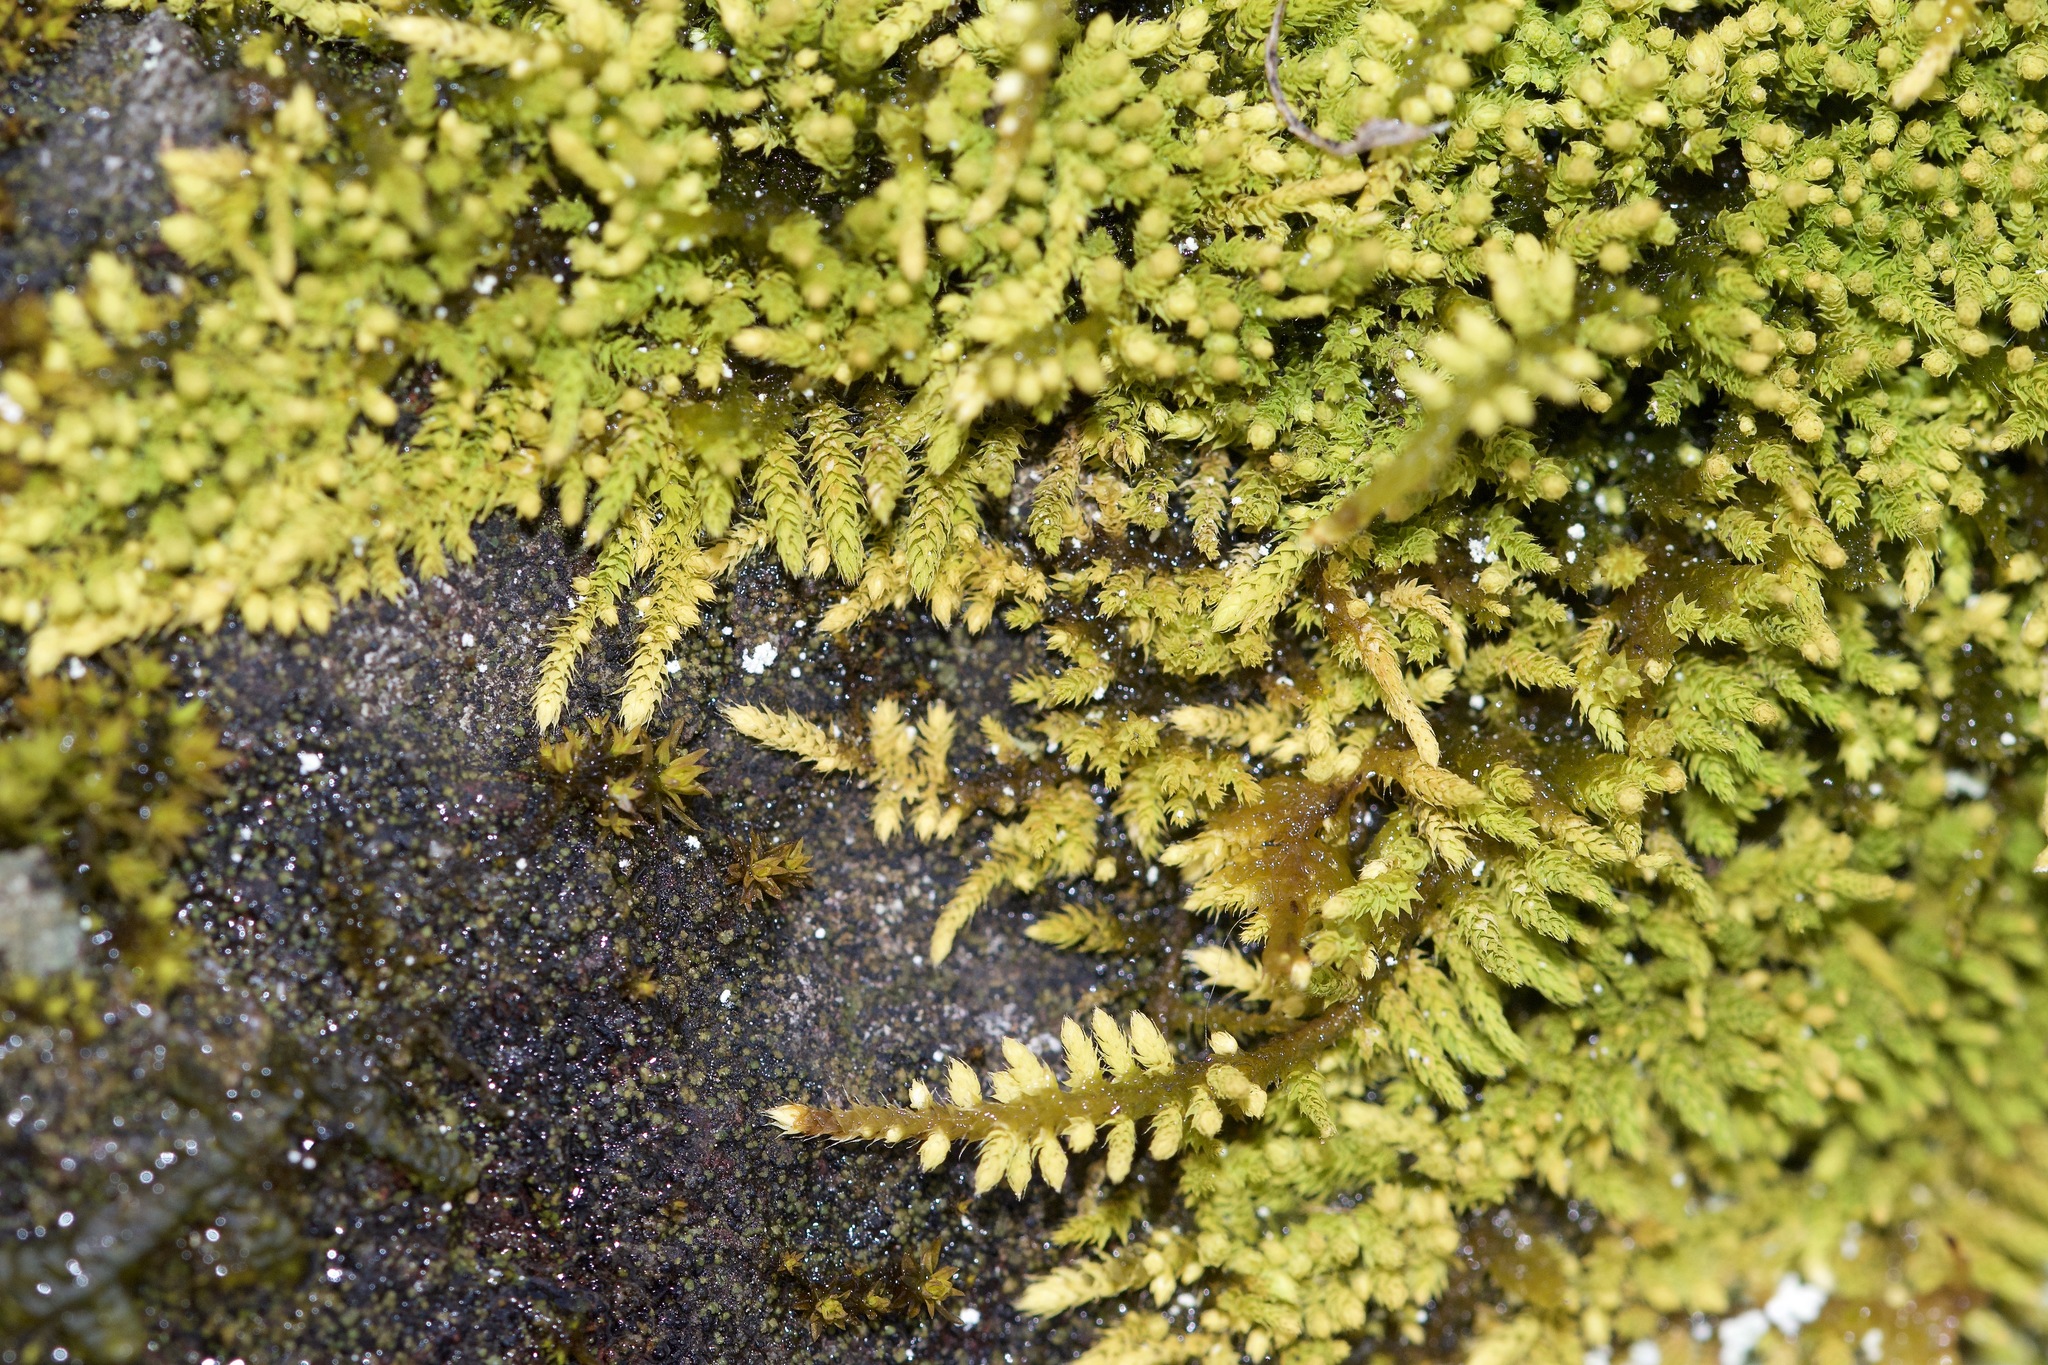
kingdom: Plantae
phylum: Bryophyta
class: Bryopsida
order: Hypnales
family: Brachytheciaceae
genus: Claopodium
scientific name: Claopodium rostratum
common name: Yellow yarn moss
